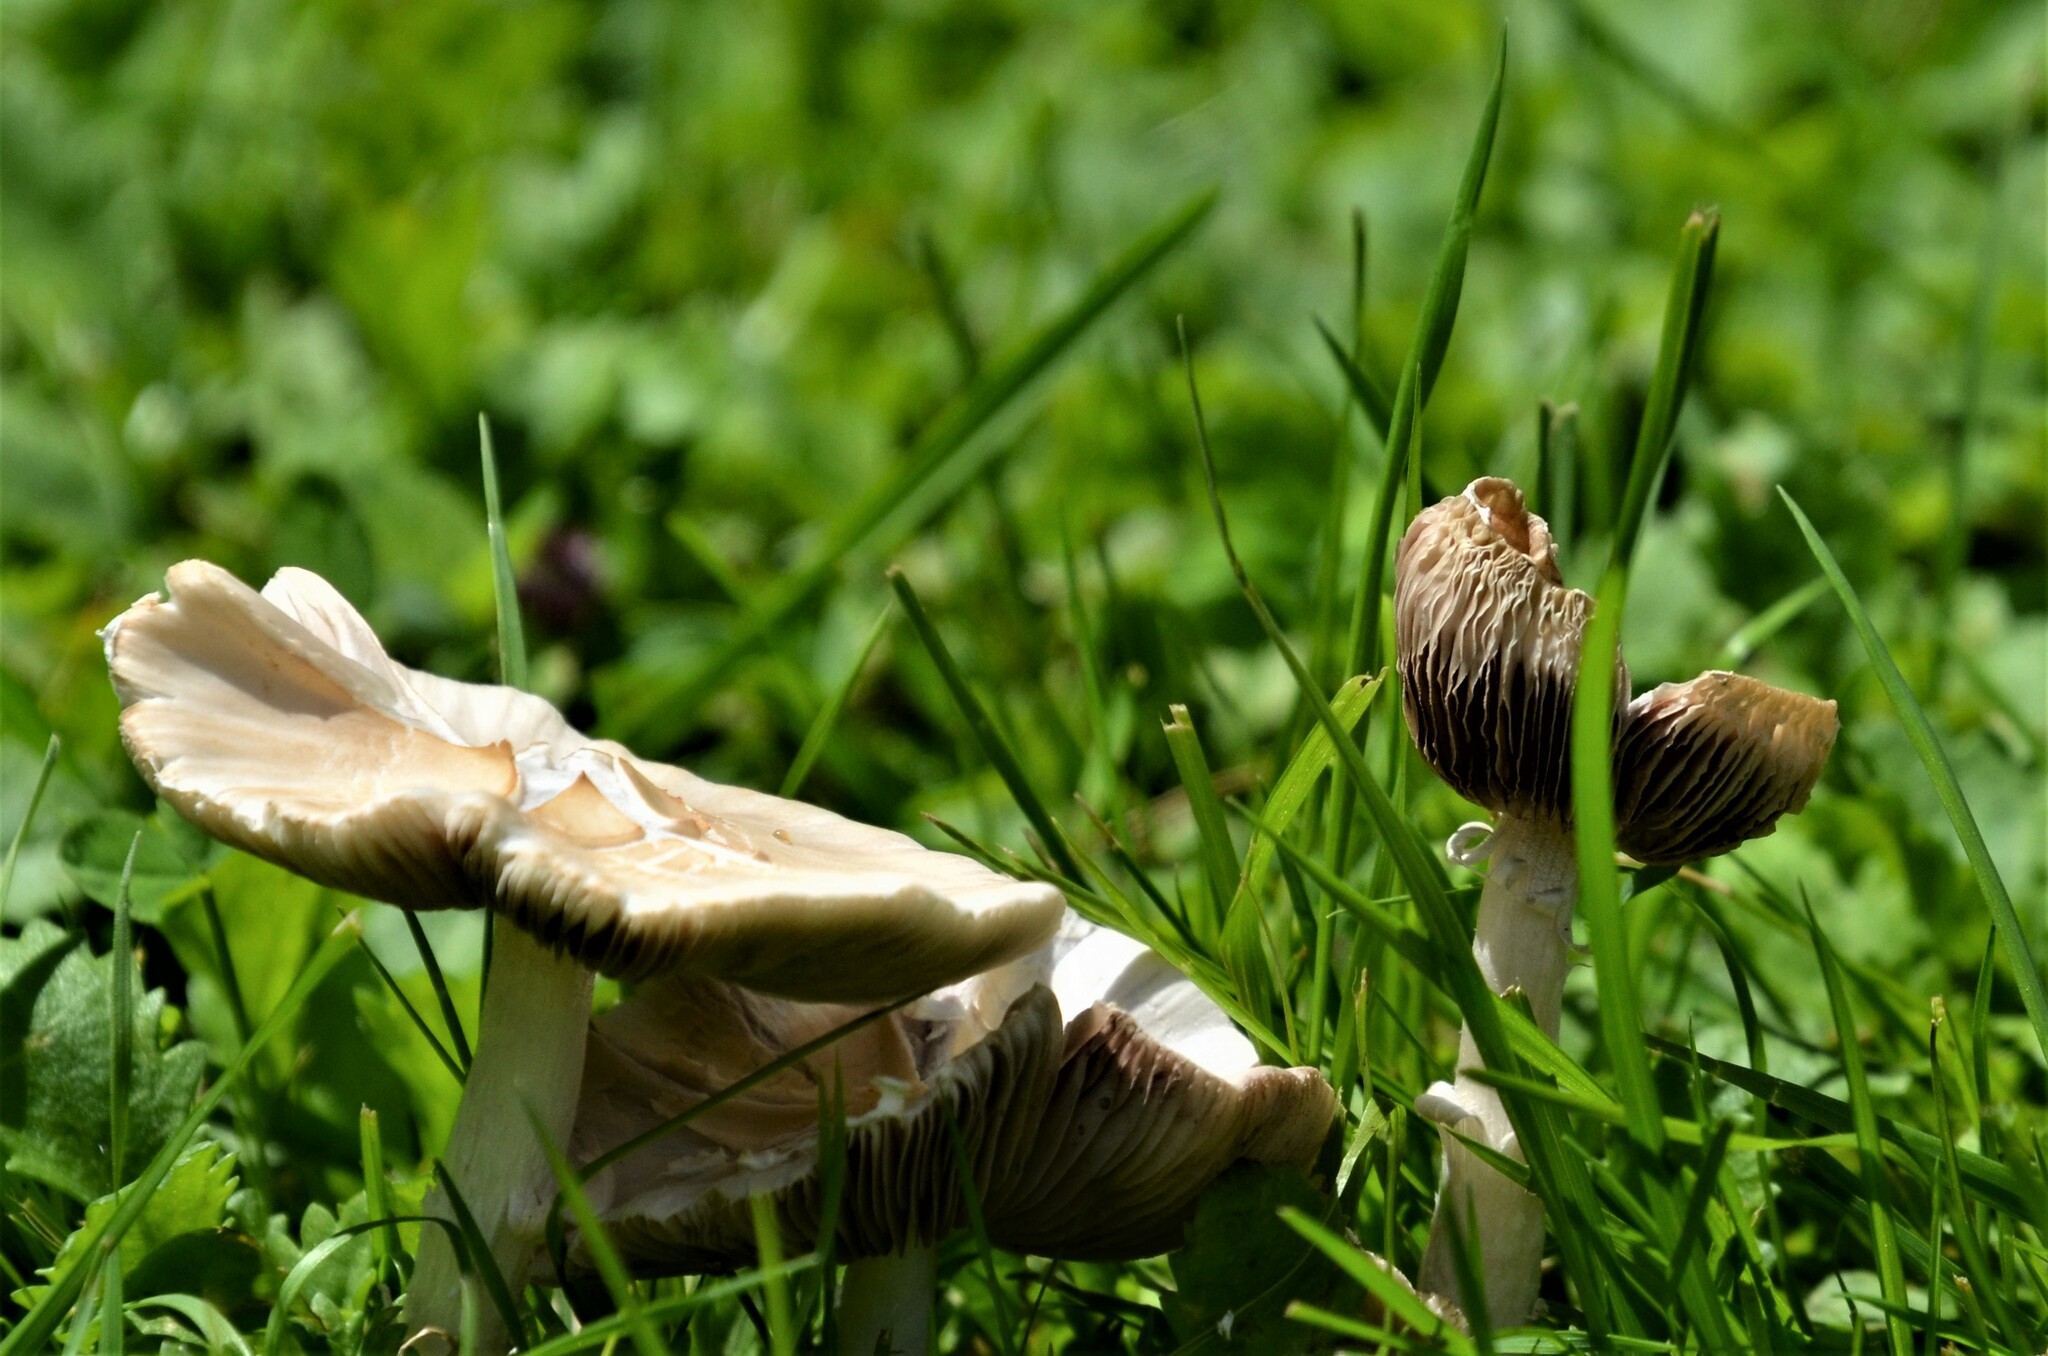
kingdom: Fungi
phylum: Basidiomycota
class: Agaricomycetes
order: Agaricales
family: Psathyrellaceae
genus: Candolleomyces
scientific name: Candolleomyces candolleanus
